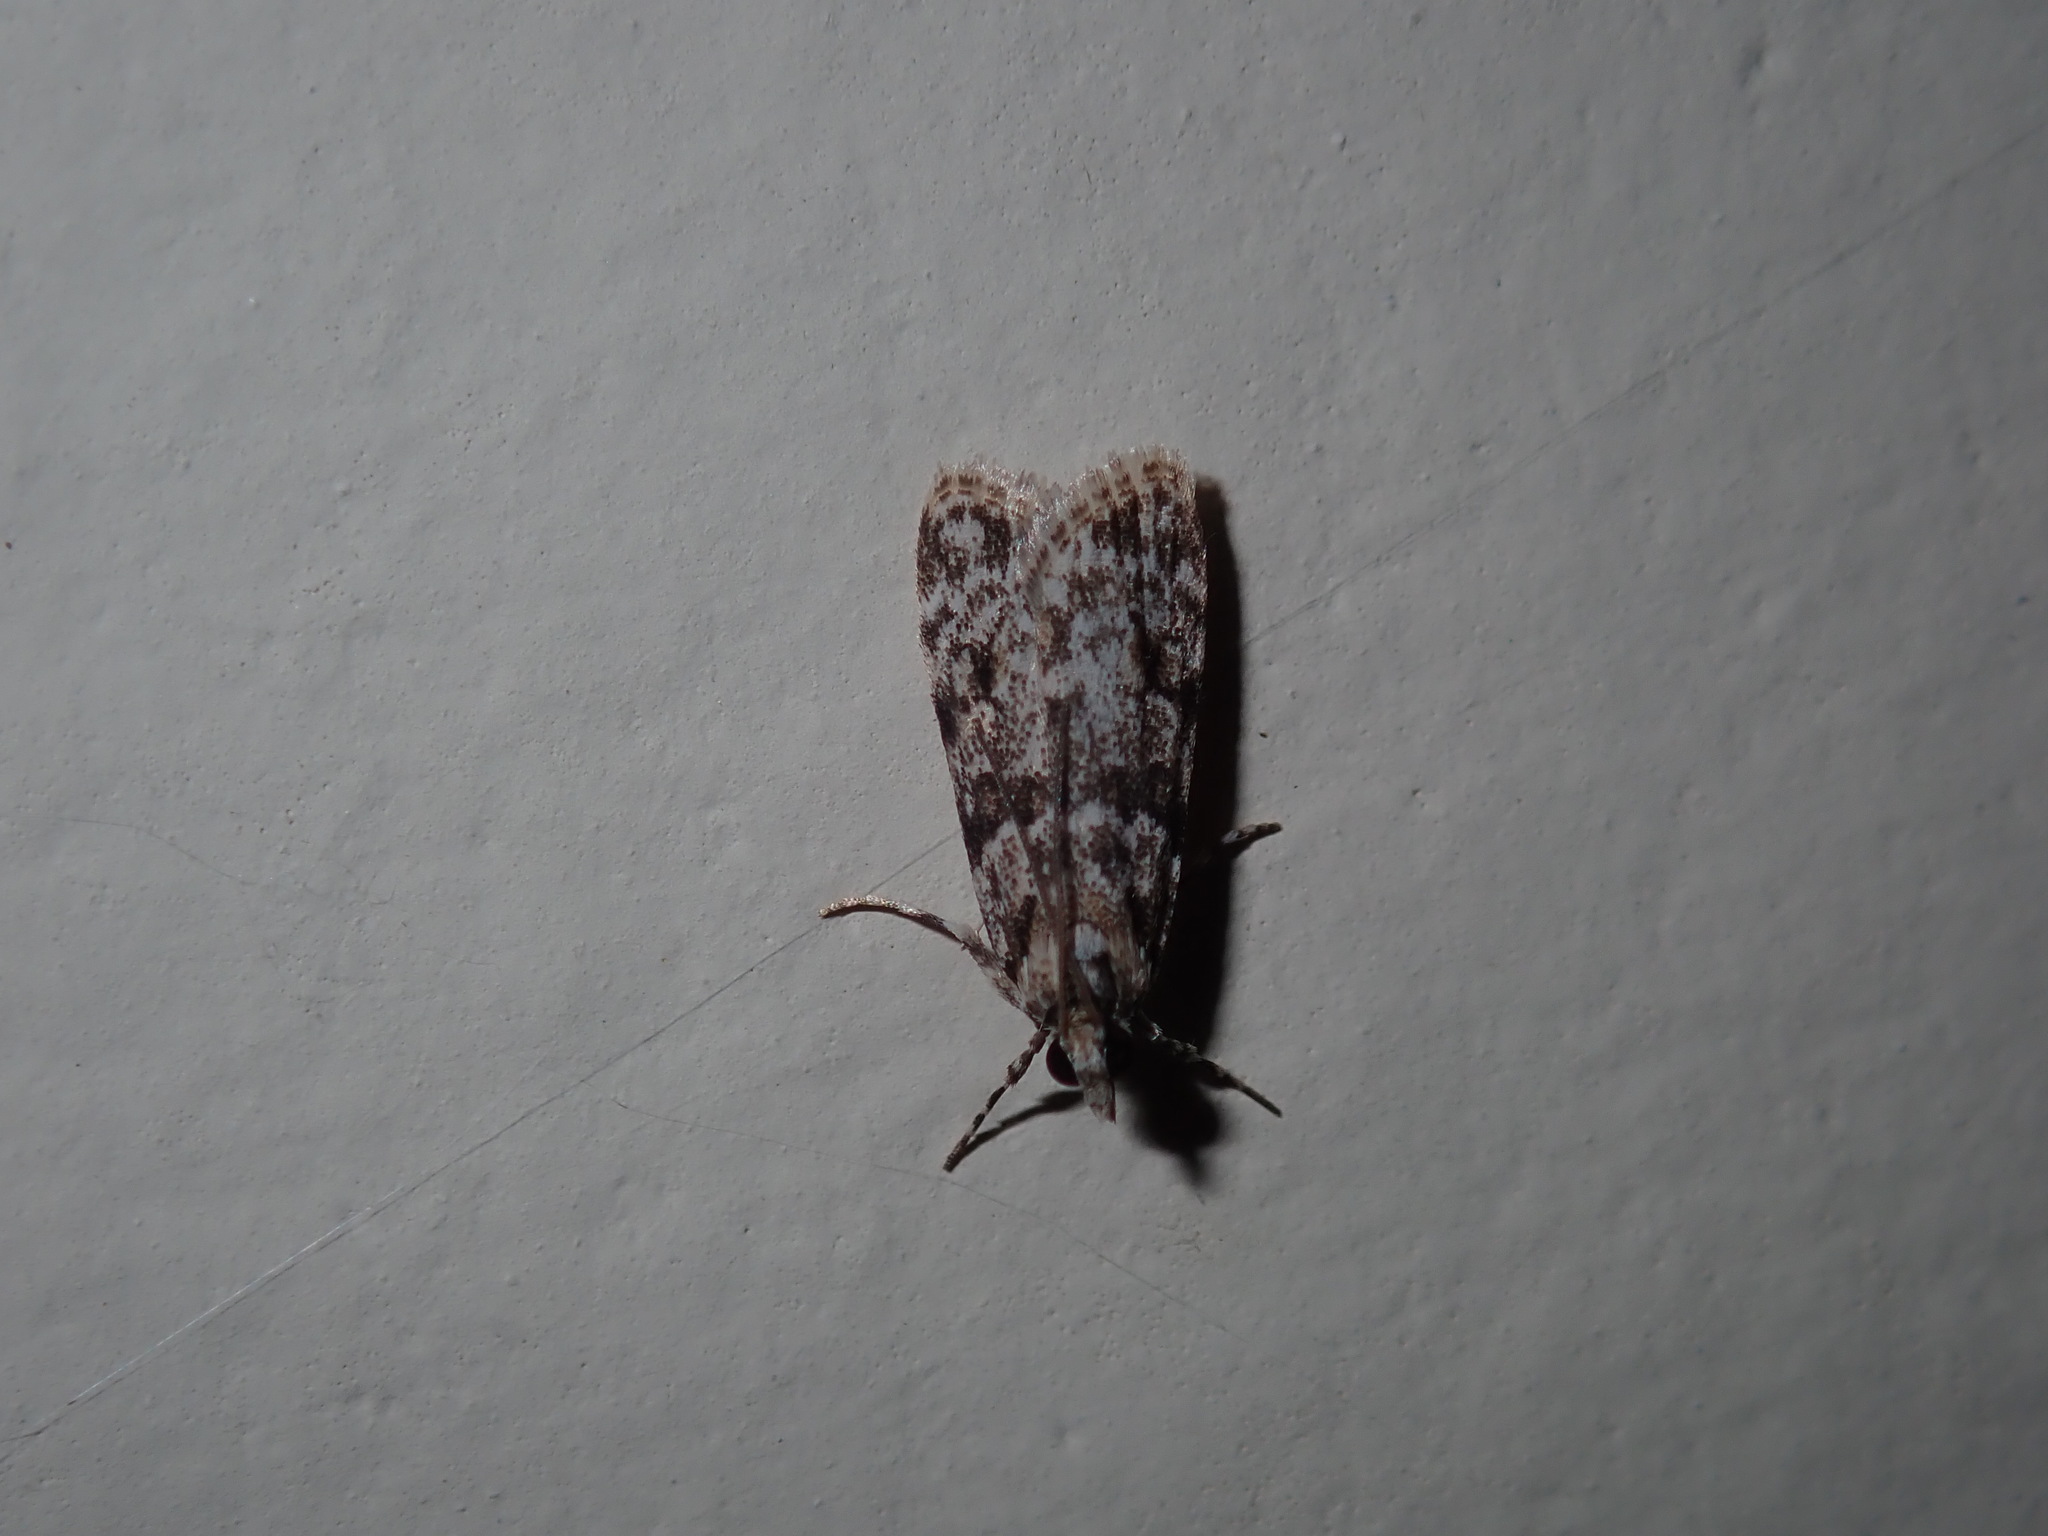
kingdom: Animalia
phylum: Arthropoda
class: Insecta
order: Lepidoptera
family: Crambidae
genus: Scoparia
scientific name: Scoparia chiasta
